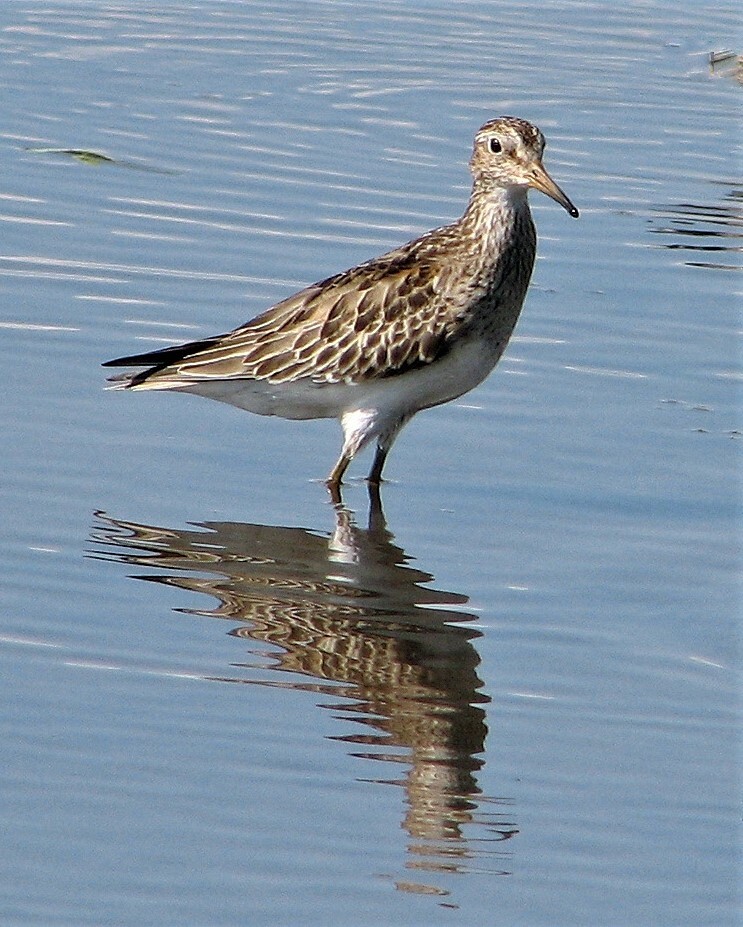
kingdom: Animalia
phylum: Chordata
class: Aves
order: Charadriiformes
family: Scolopacidae
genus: Calidris
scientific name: Calidris melanotos
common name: Pectoral sandpiper
